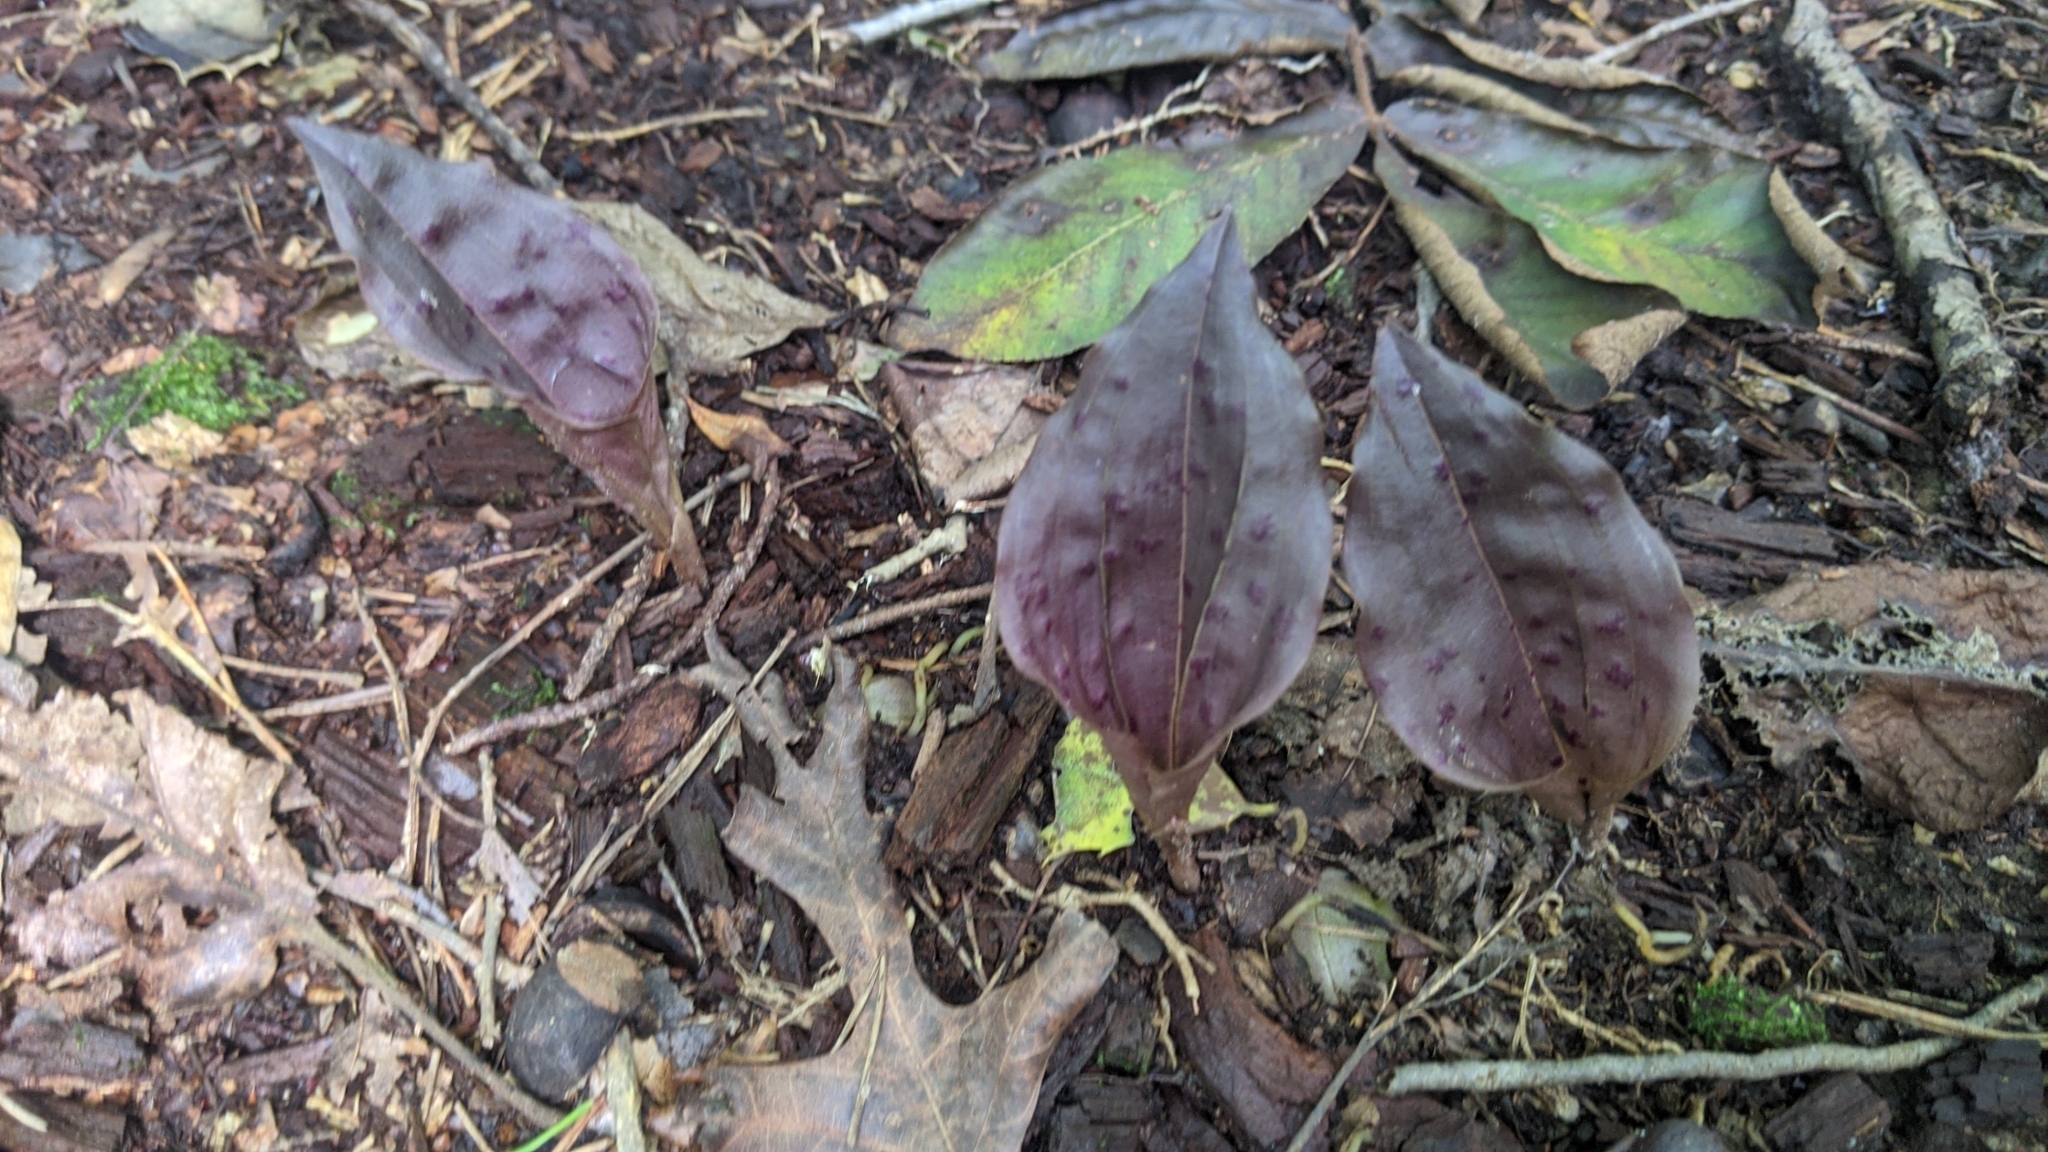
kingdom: Plantae
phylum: Tracheophyta
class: Liliopsida
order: Asparagales
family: Orchidaceae
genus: Tipularia
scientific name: Tipularia discolor
